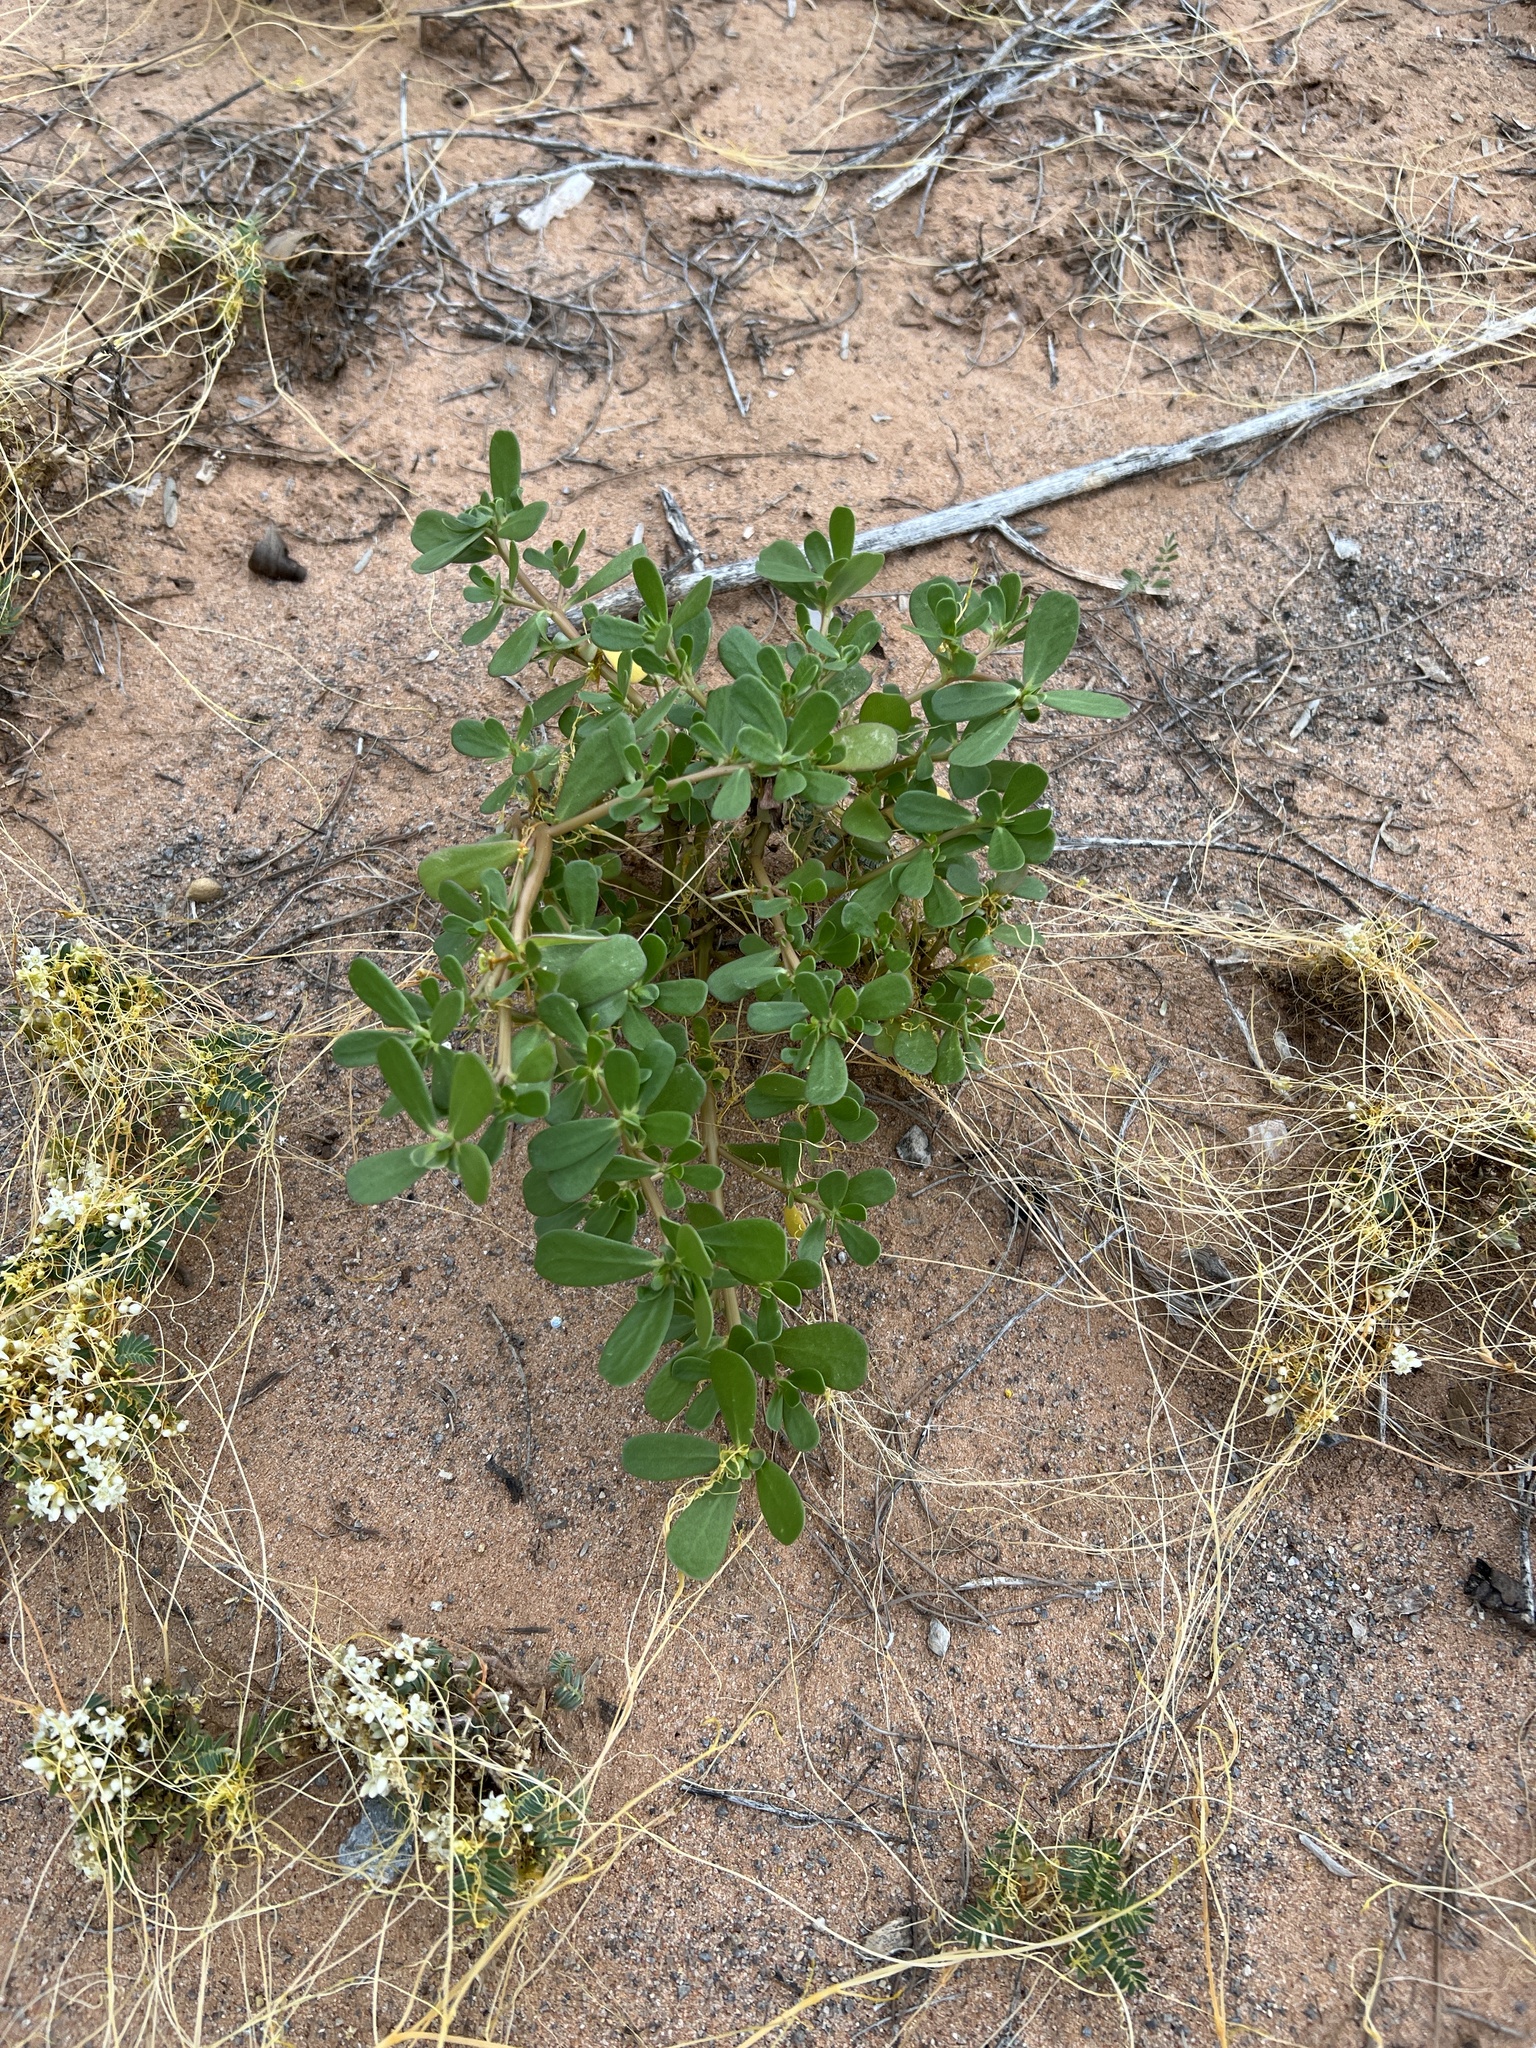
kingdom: Plantae
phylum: Tracheophyta
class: Magnoliopsida
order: Caryophyllales
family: Portulacaceae
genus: Portulaca
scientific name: Portulaca oleracea
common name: Common purslane
